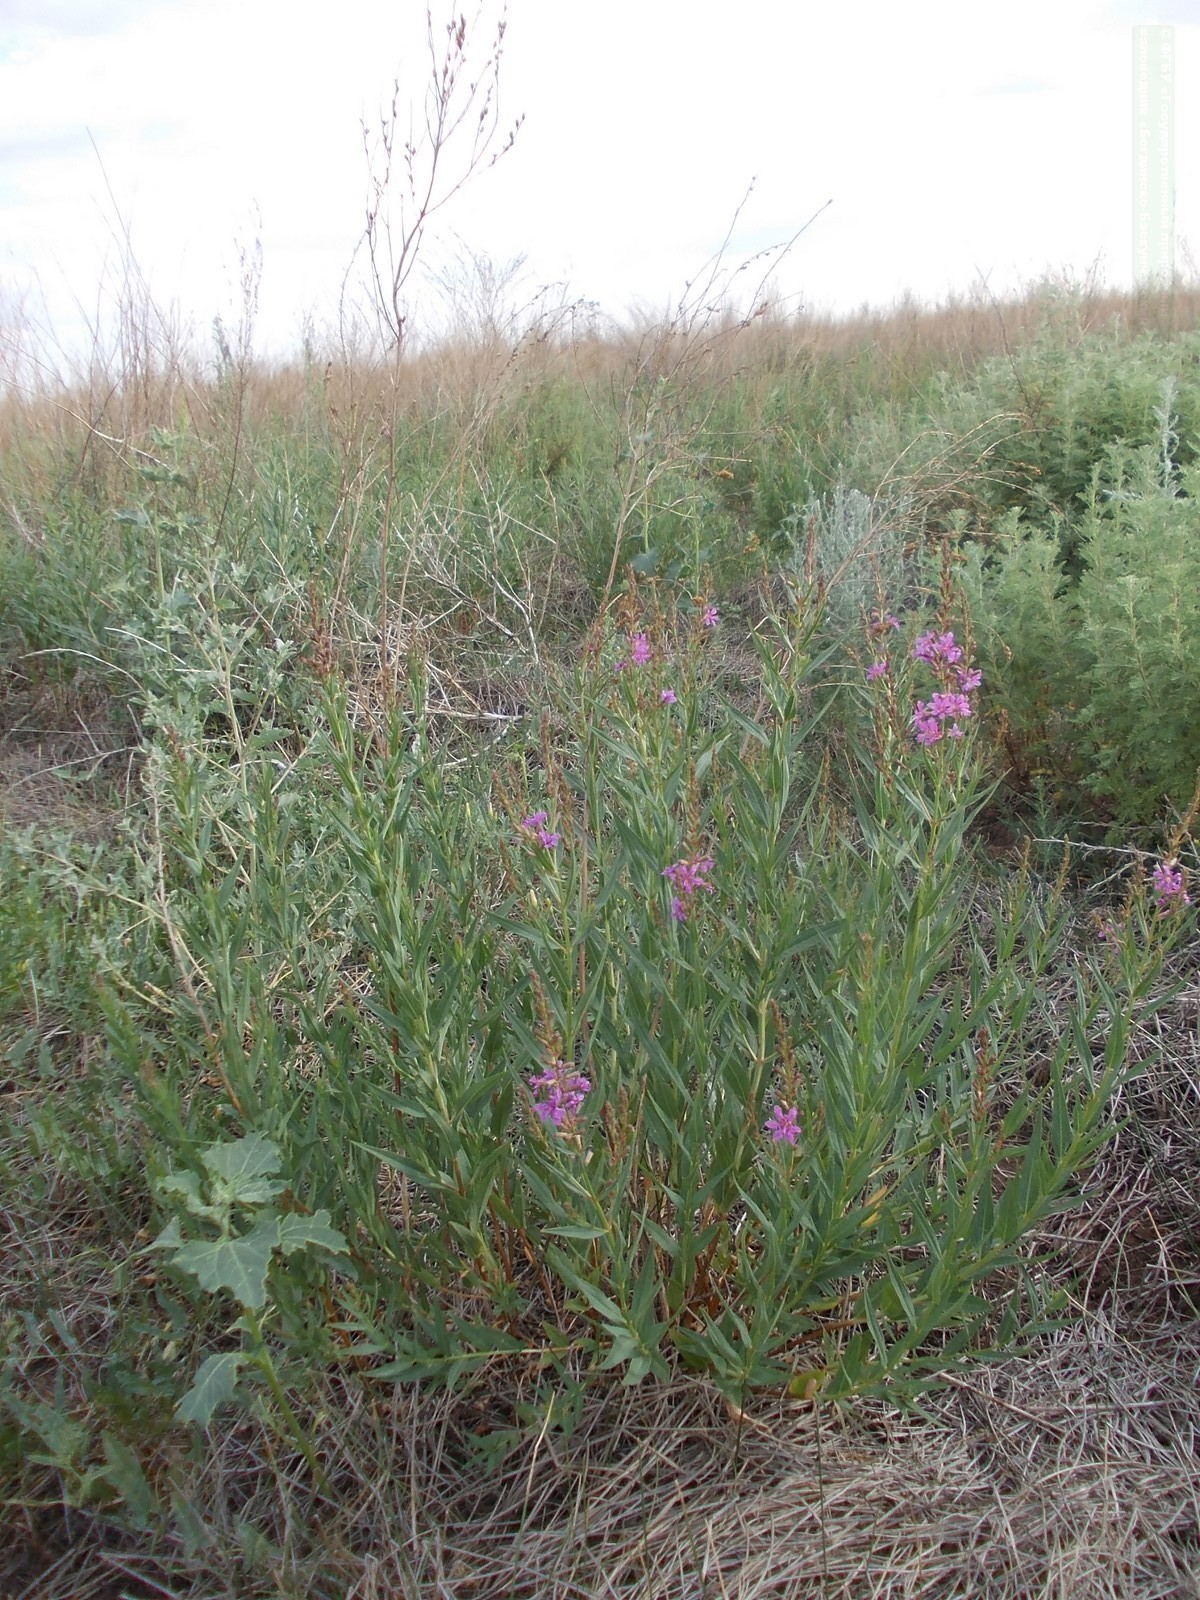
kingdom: Plantae
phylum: Tracheophyta
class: Magnoliopsida
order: Myrtales
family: Lythraceae
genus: Lythrum
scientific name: Lythrum virgatum
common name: European wand loosestrife
